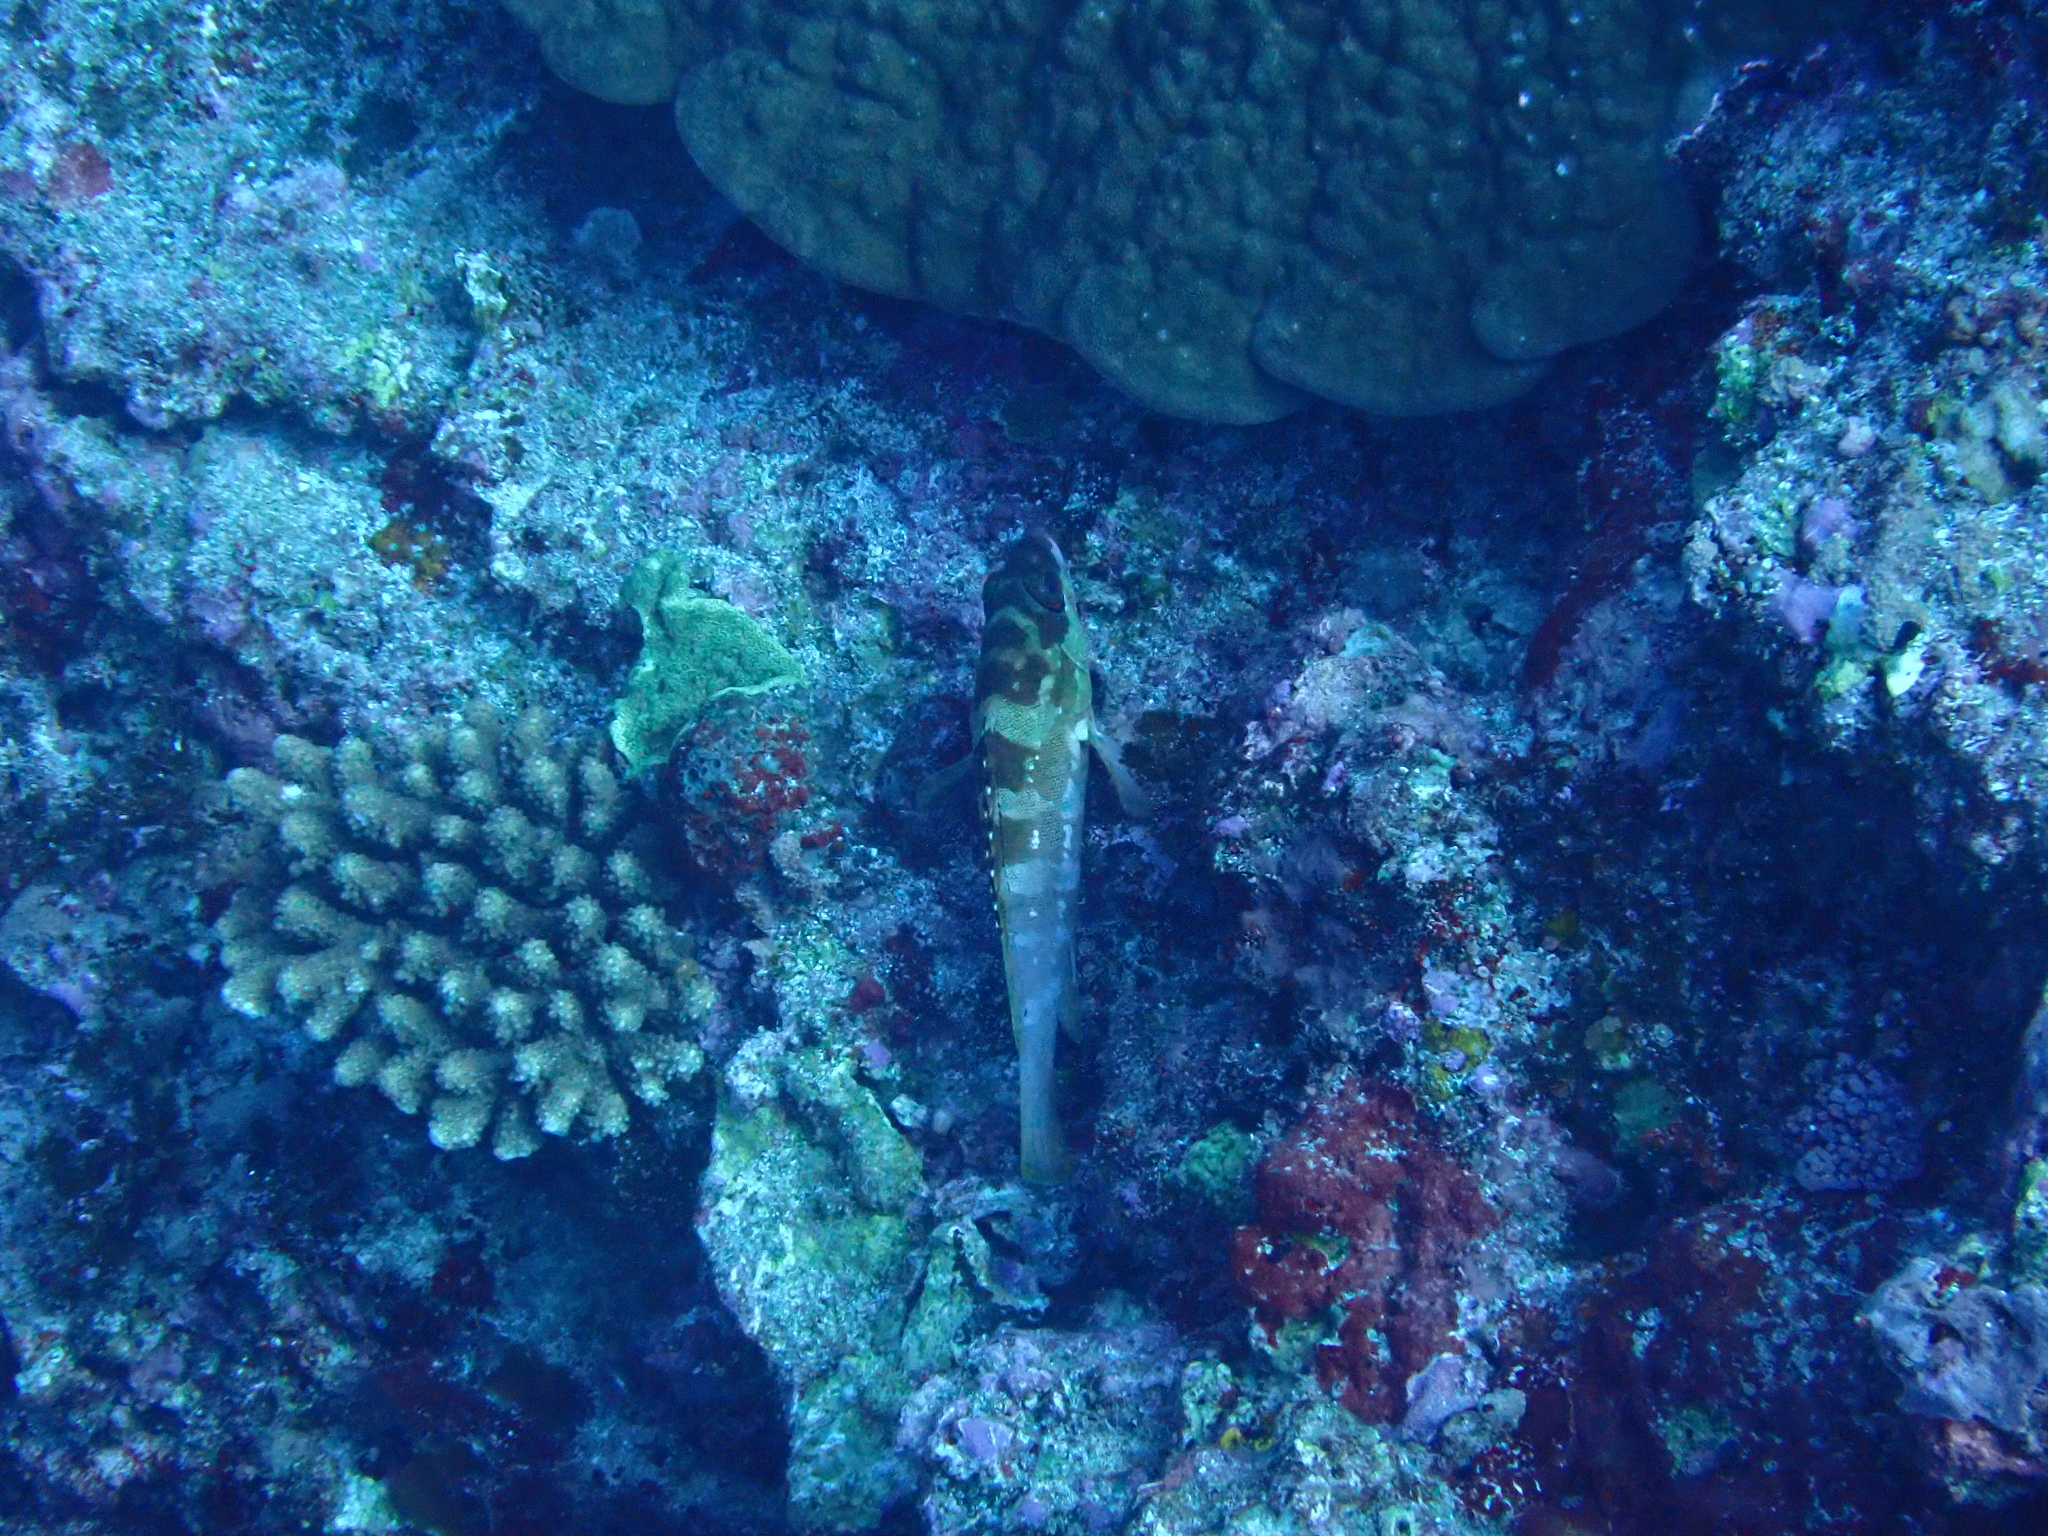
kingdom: Animalia
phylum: Chordata
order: Perciformes
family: Serranidae
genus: Epinephelus
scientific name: Epinephelus fasciatus
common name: Blacktip grouper
